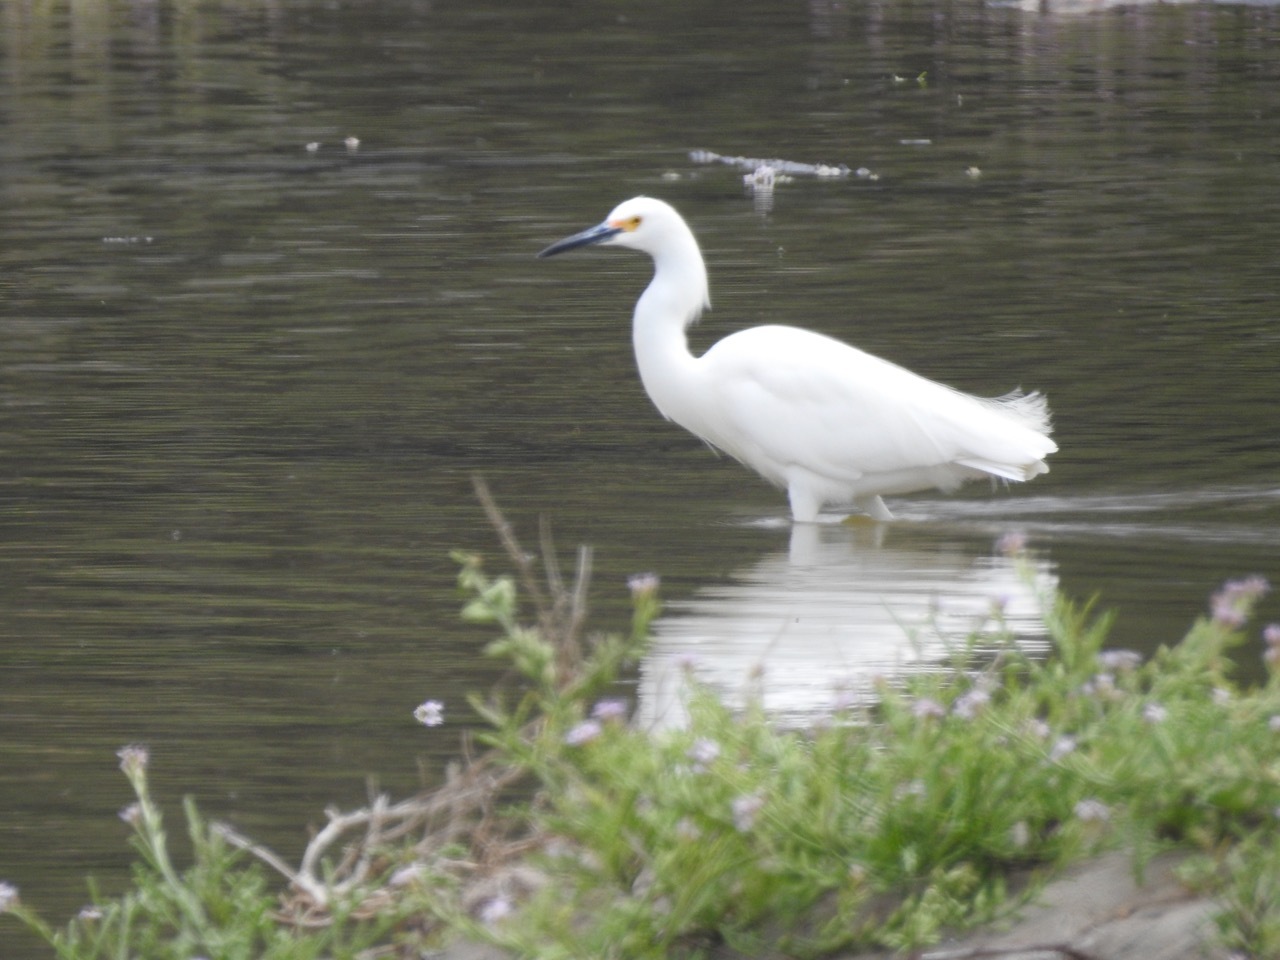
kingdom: Animalia
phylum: Chordata
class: Aves
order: Pelecaniformes
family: Ardeidae
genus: Egretta
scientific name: Egretta thula
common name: Snowy egret
